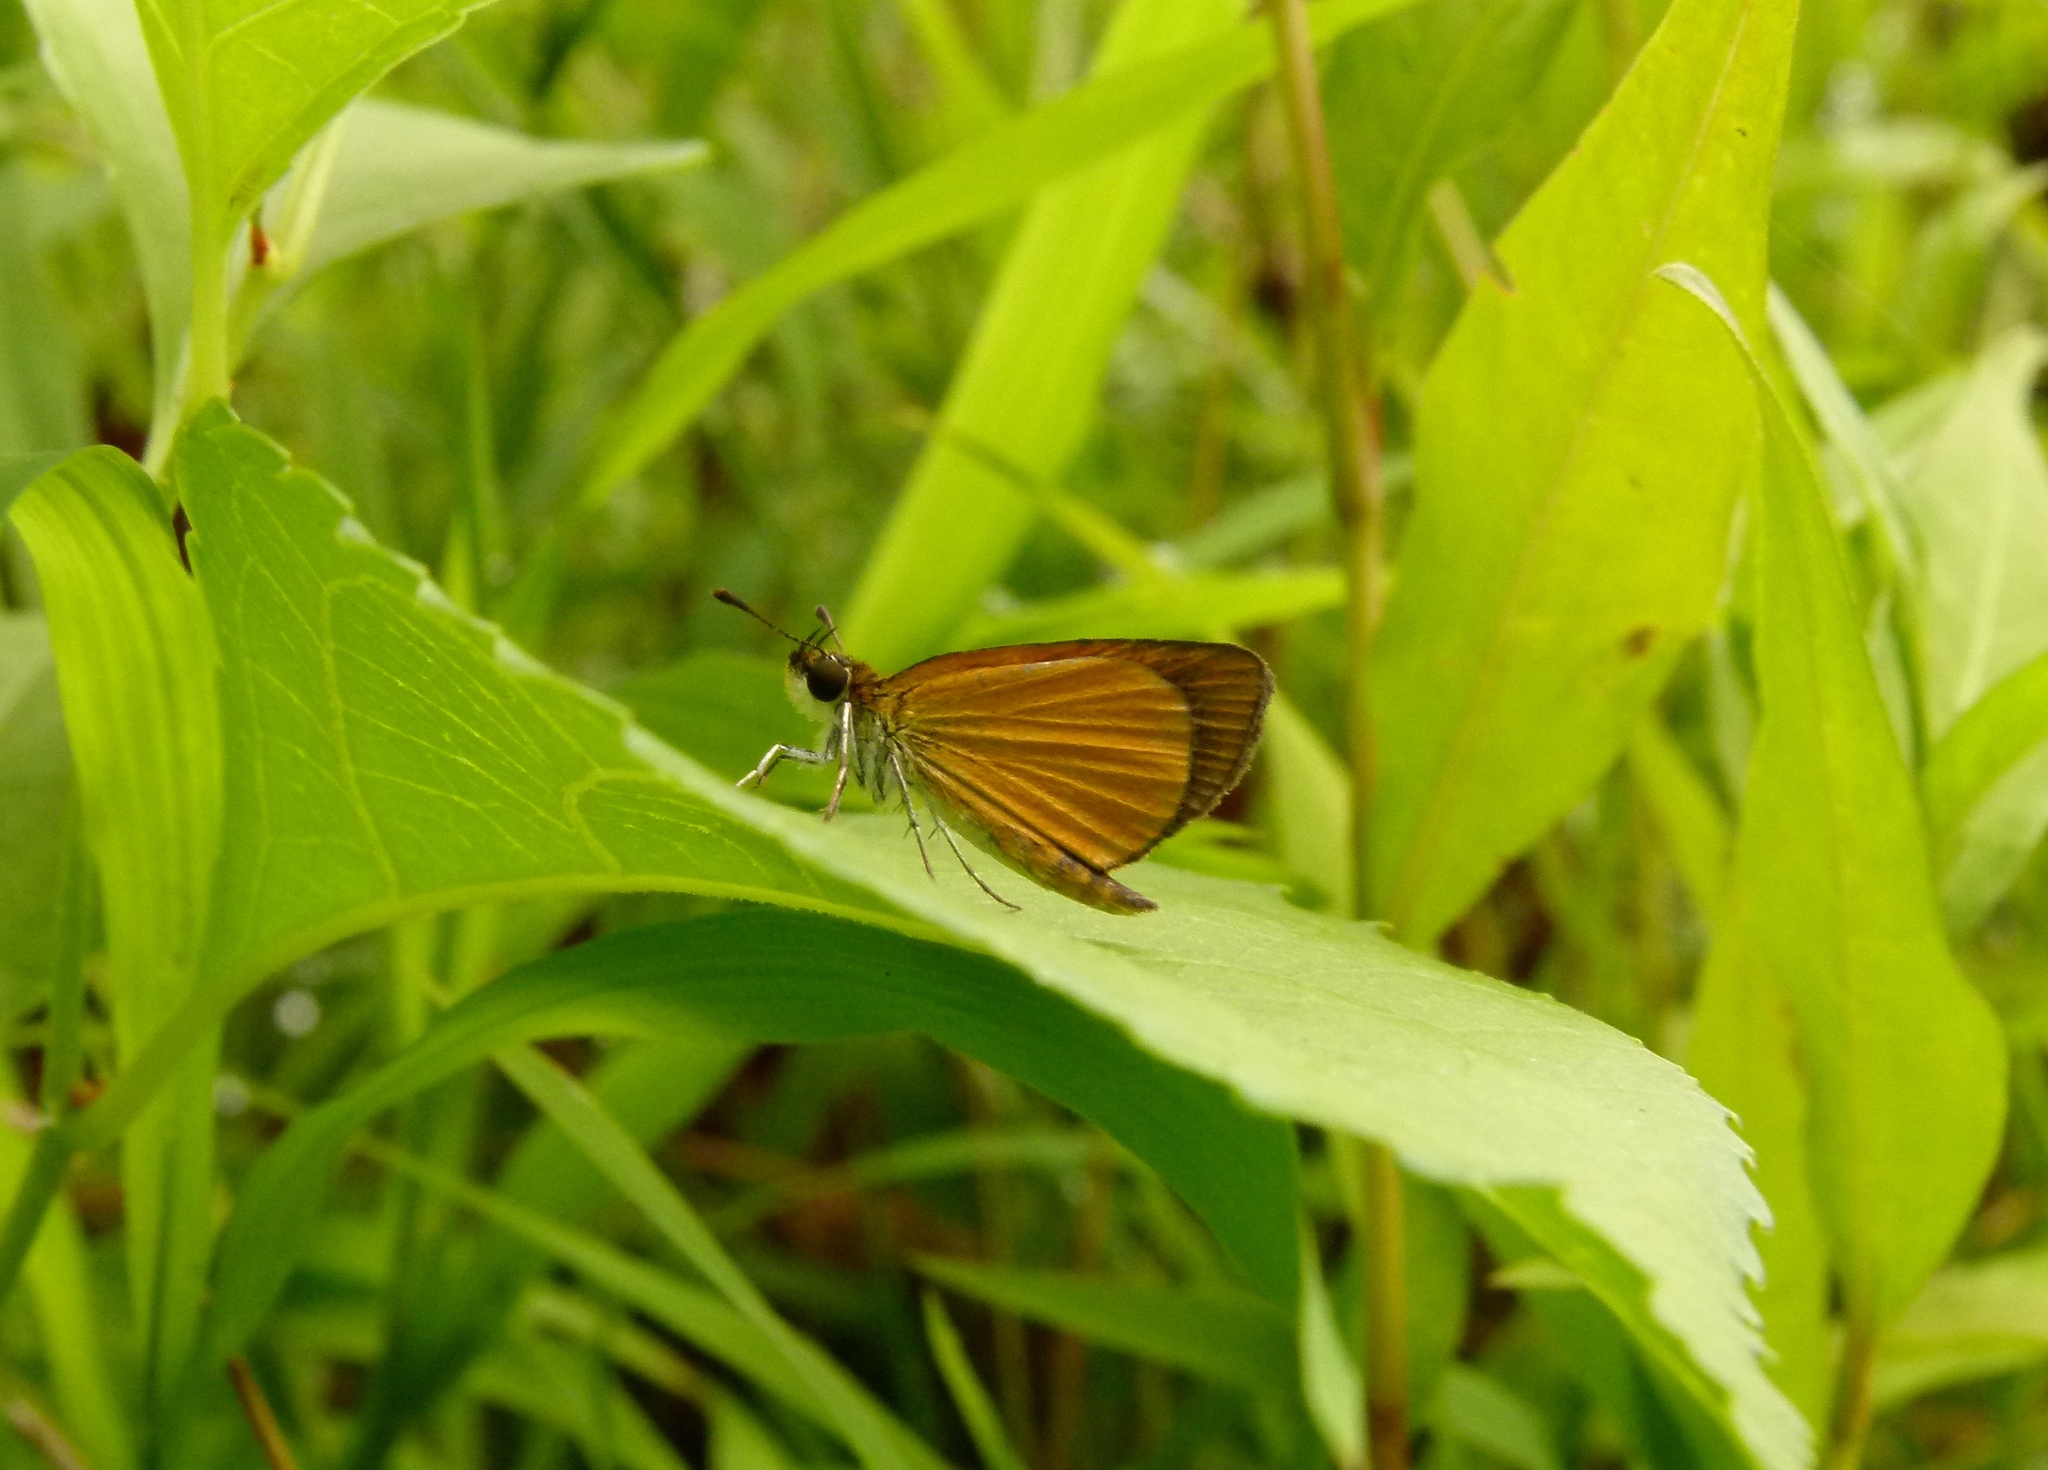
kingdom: Animalia
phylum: Arthropoda
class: Insecta
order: Lepidoptera
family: Hesperiidae
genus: Ancyloxypha
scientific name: Ancyloxypha numitor
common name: Least skipper
